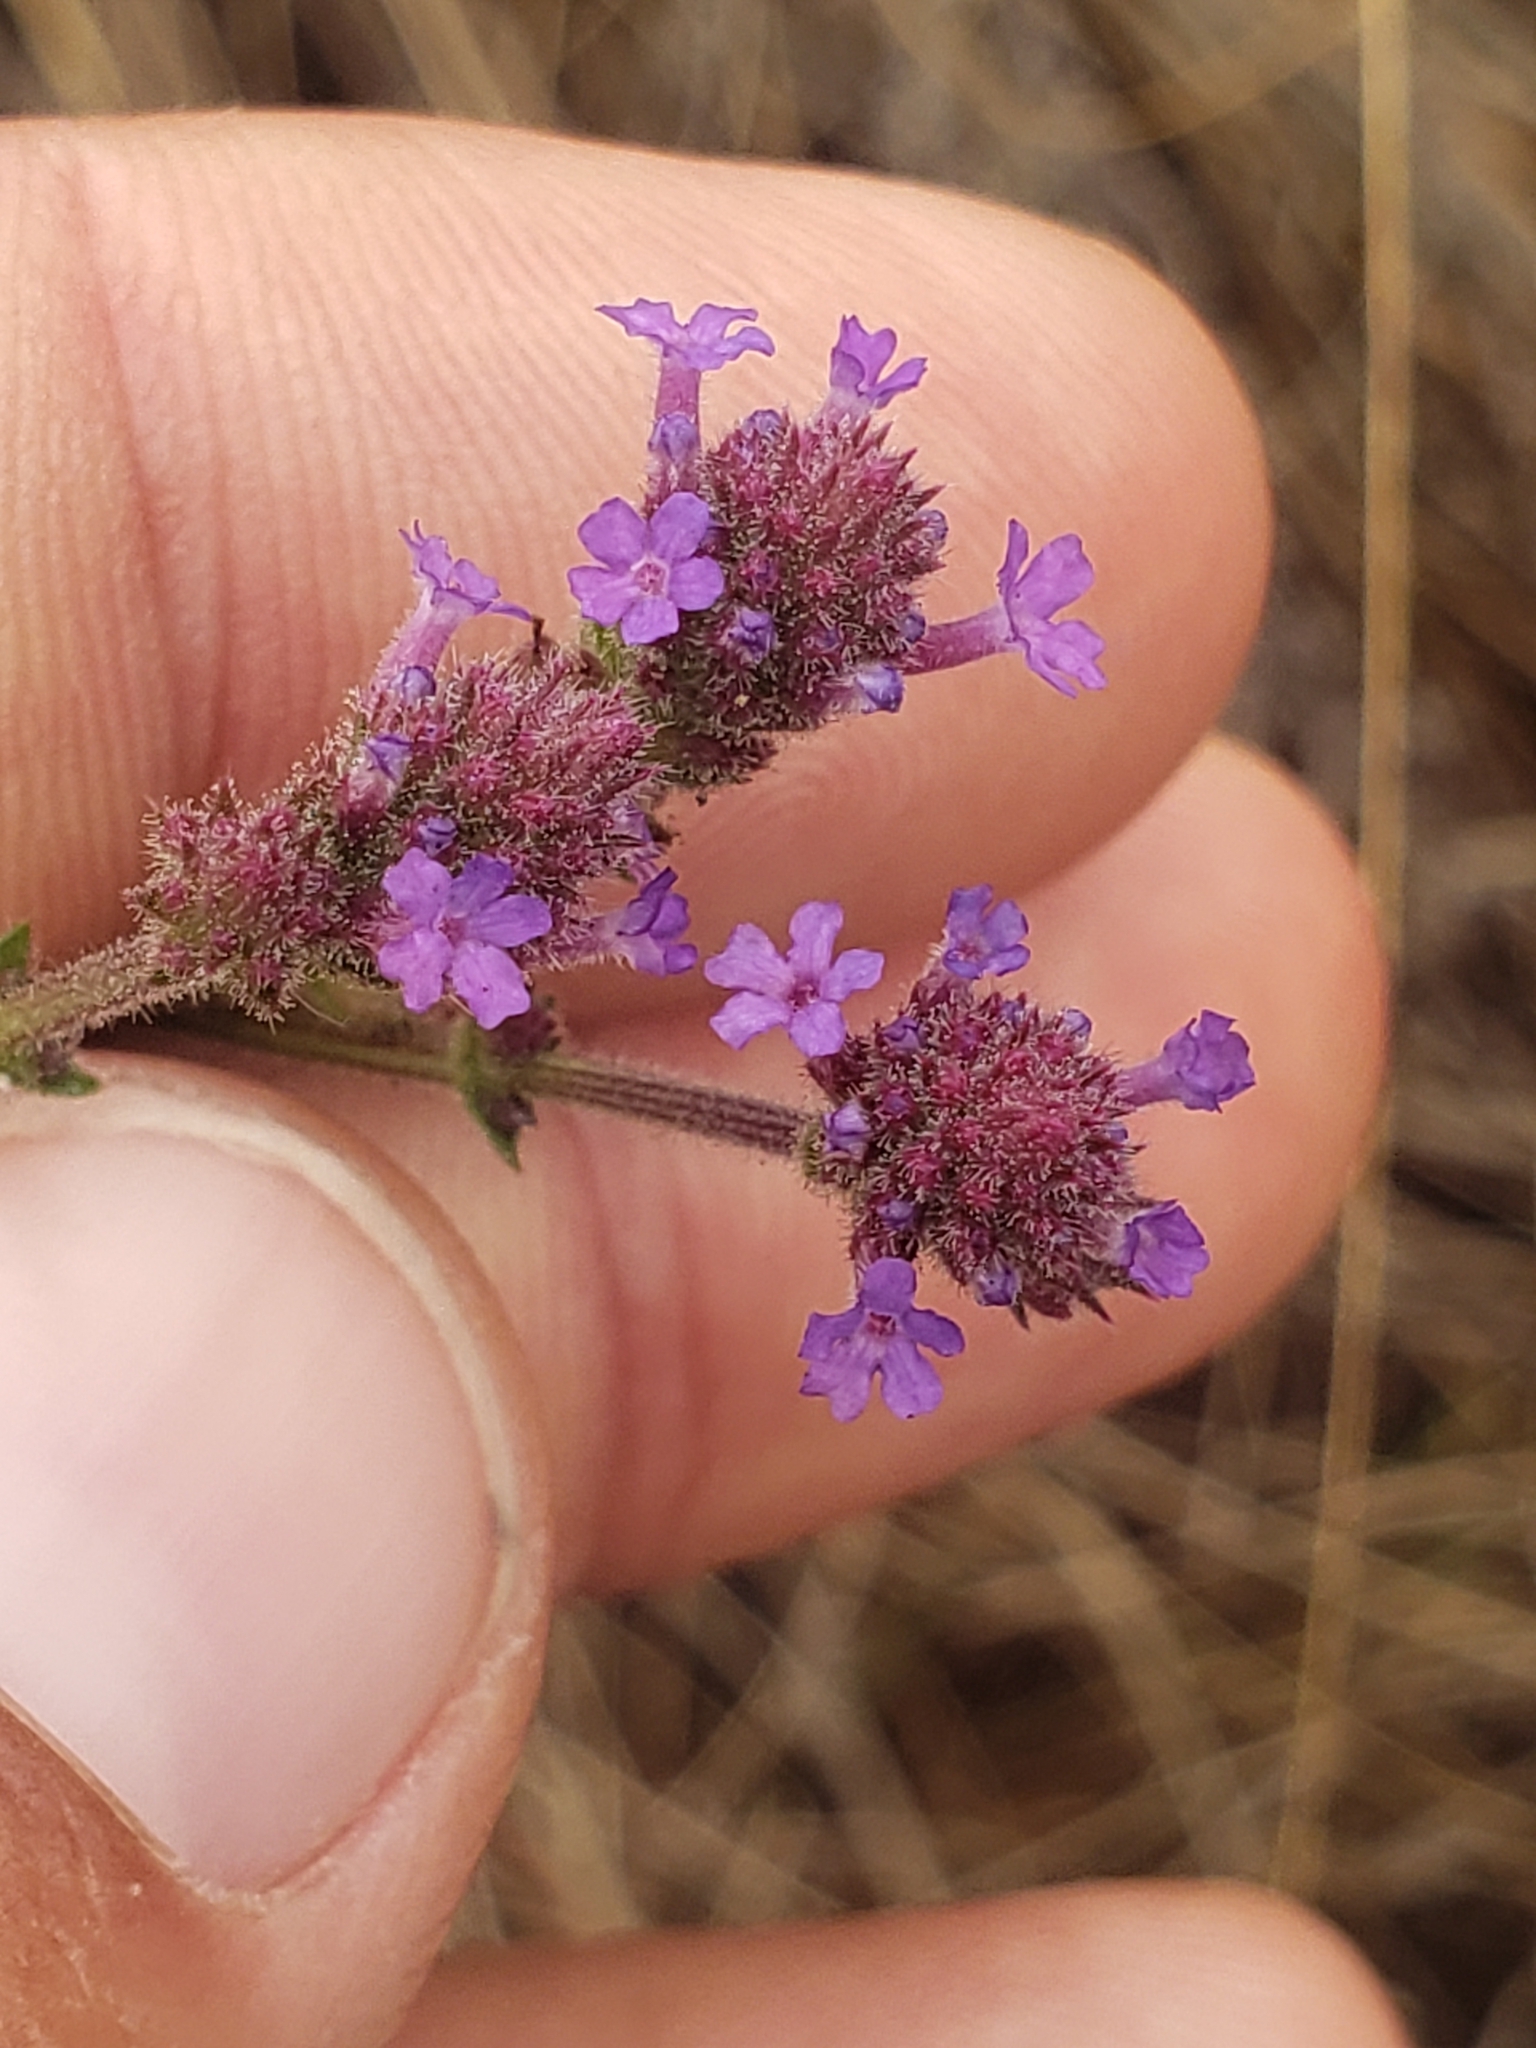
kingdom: Plantae
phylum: Tracheophyta
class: Magnoliopsida
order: Lamiales
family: Verbenaceae
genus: Verbena
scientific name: Verbena bonariensis
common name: Purpletop vervain
